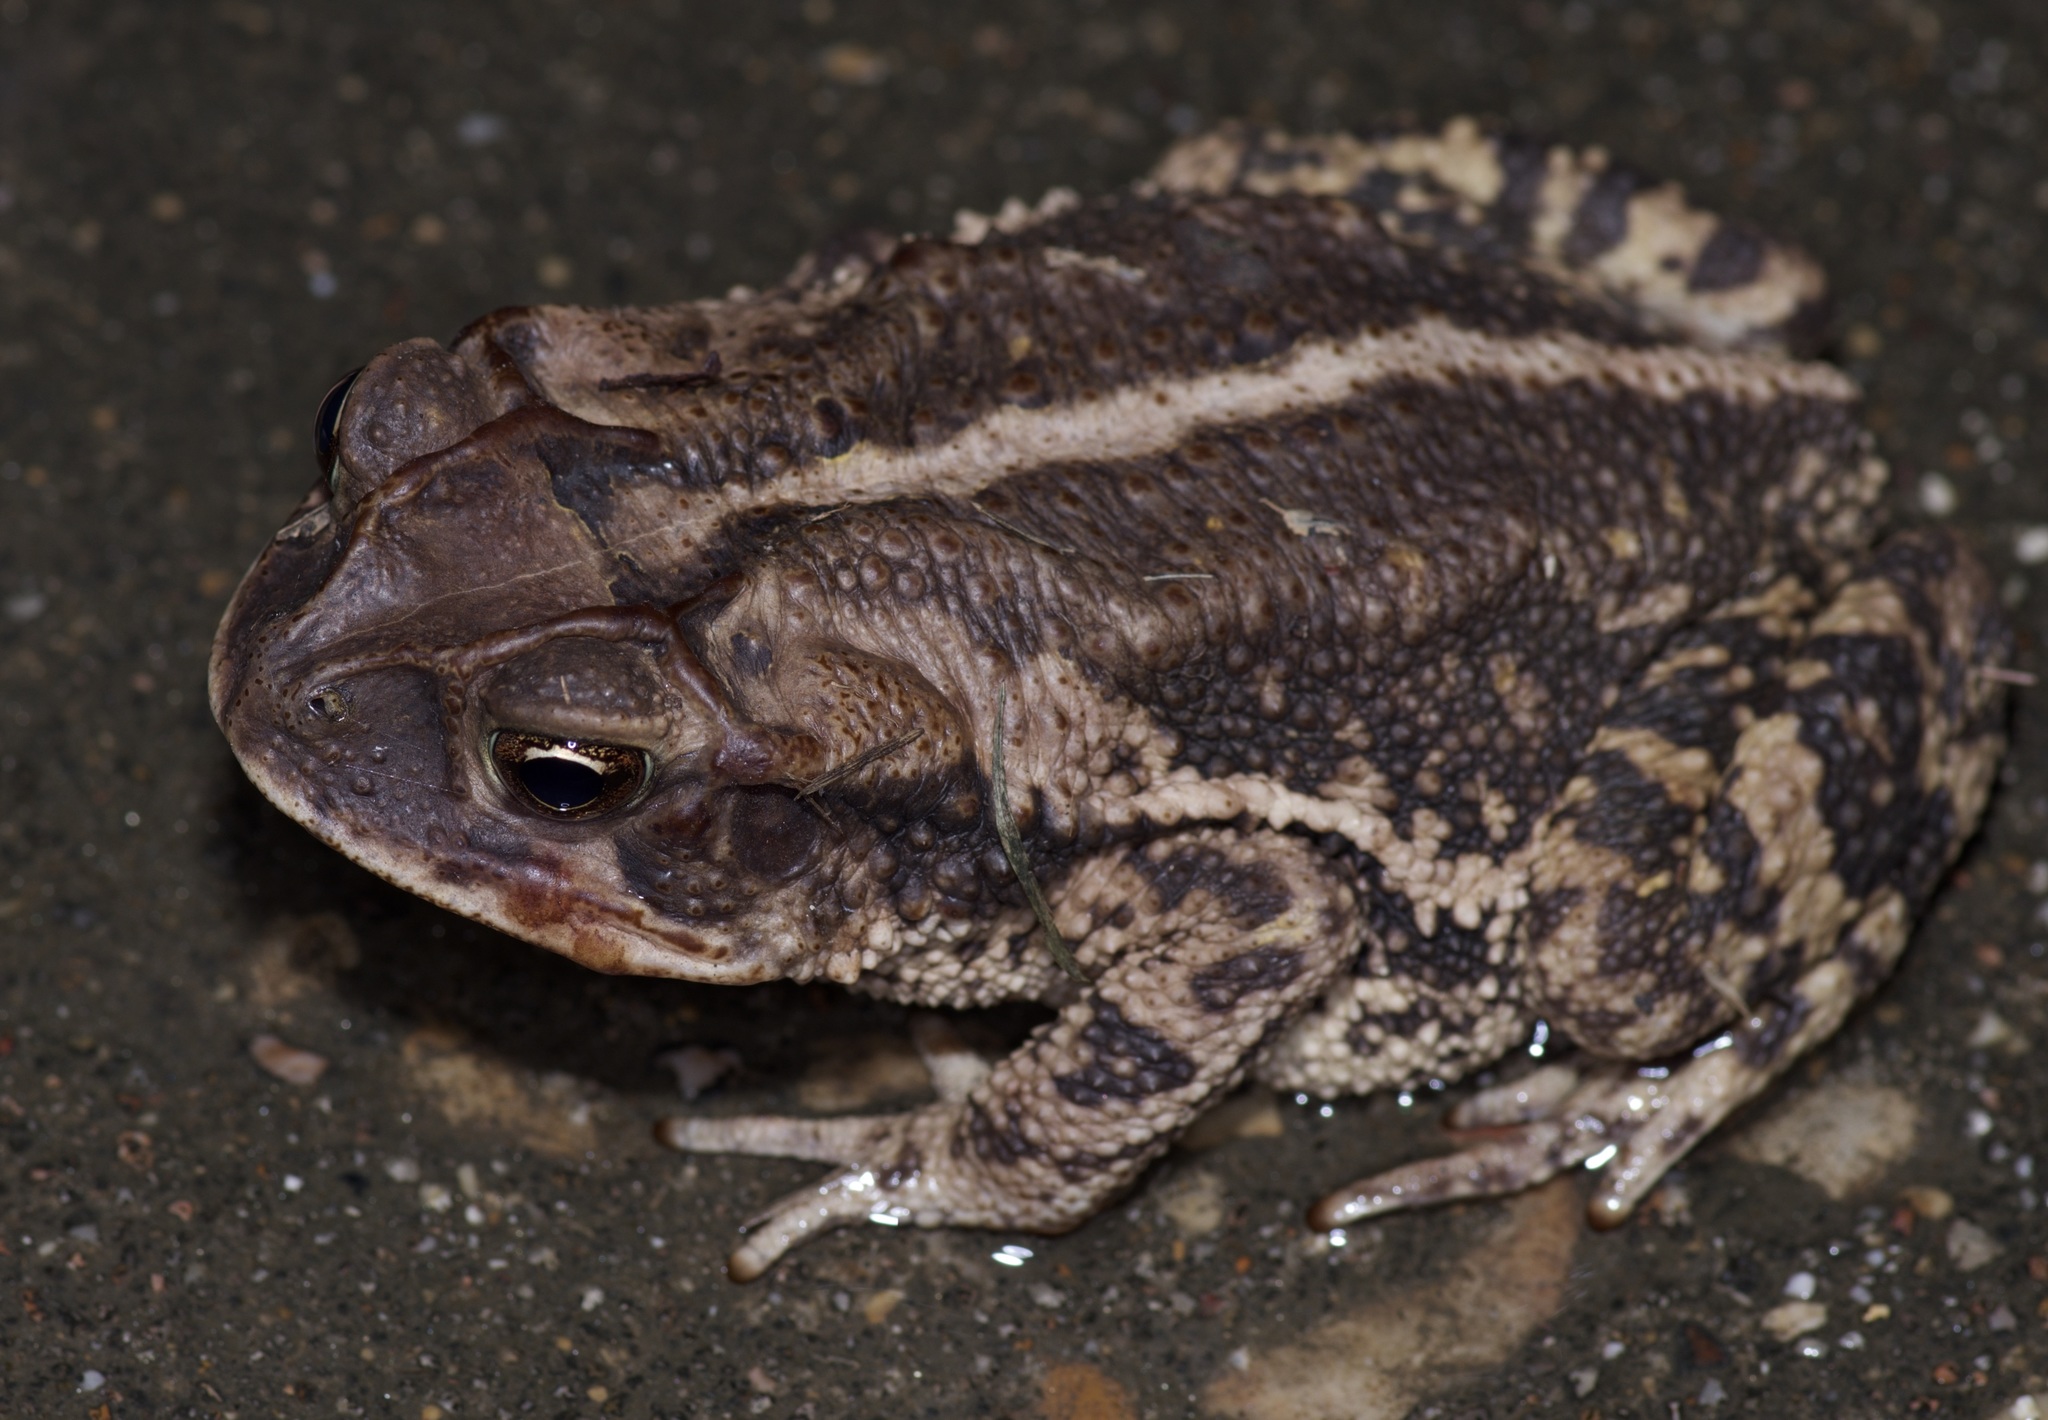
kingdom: Animalia
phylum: Chordata
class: Amphibia
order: Anura
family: Bufonidae
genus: Incilius
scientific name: Incilius nebulifer
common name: Gulf coast toad
